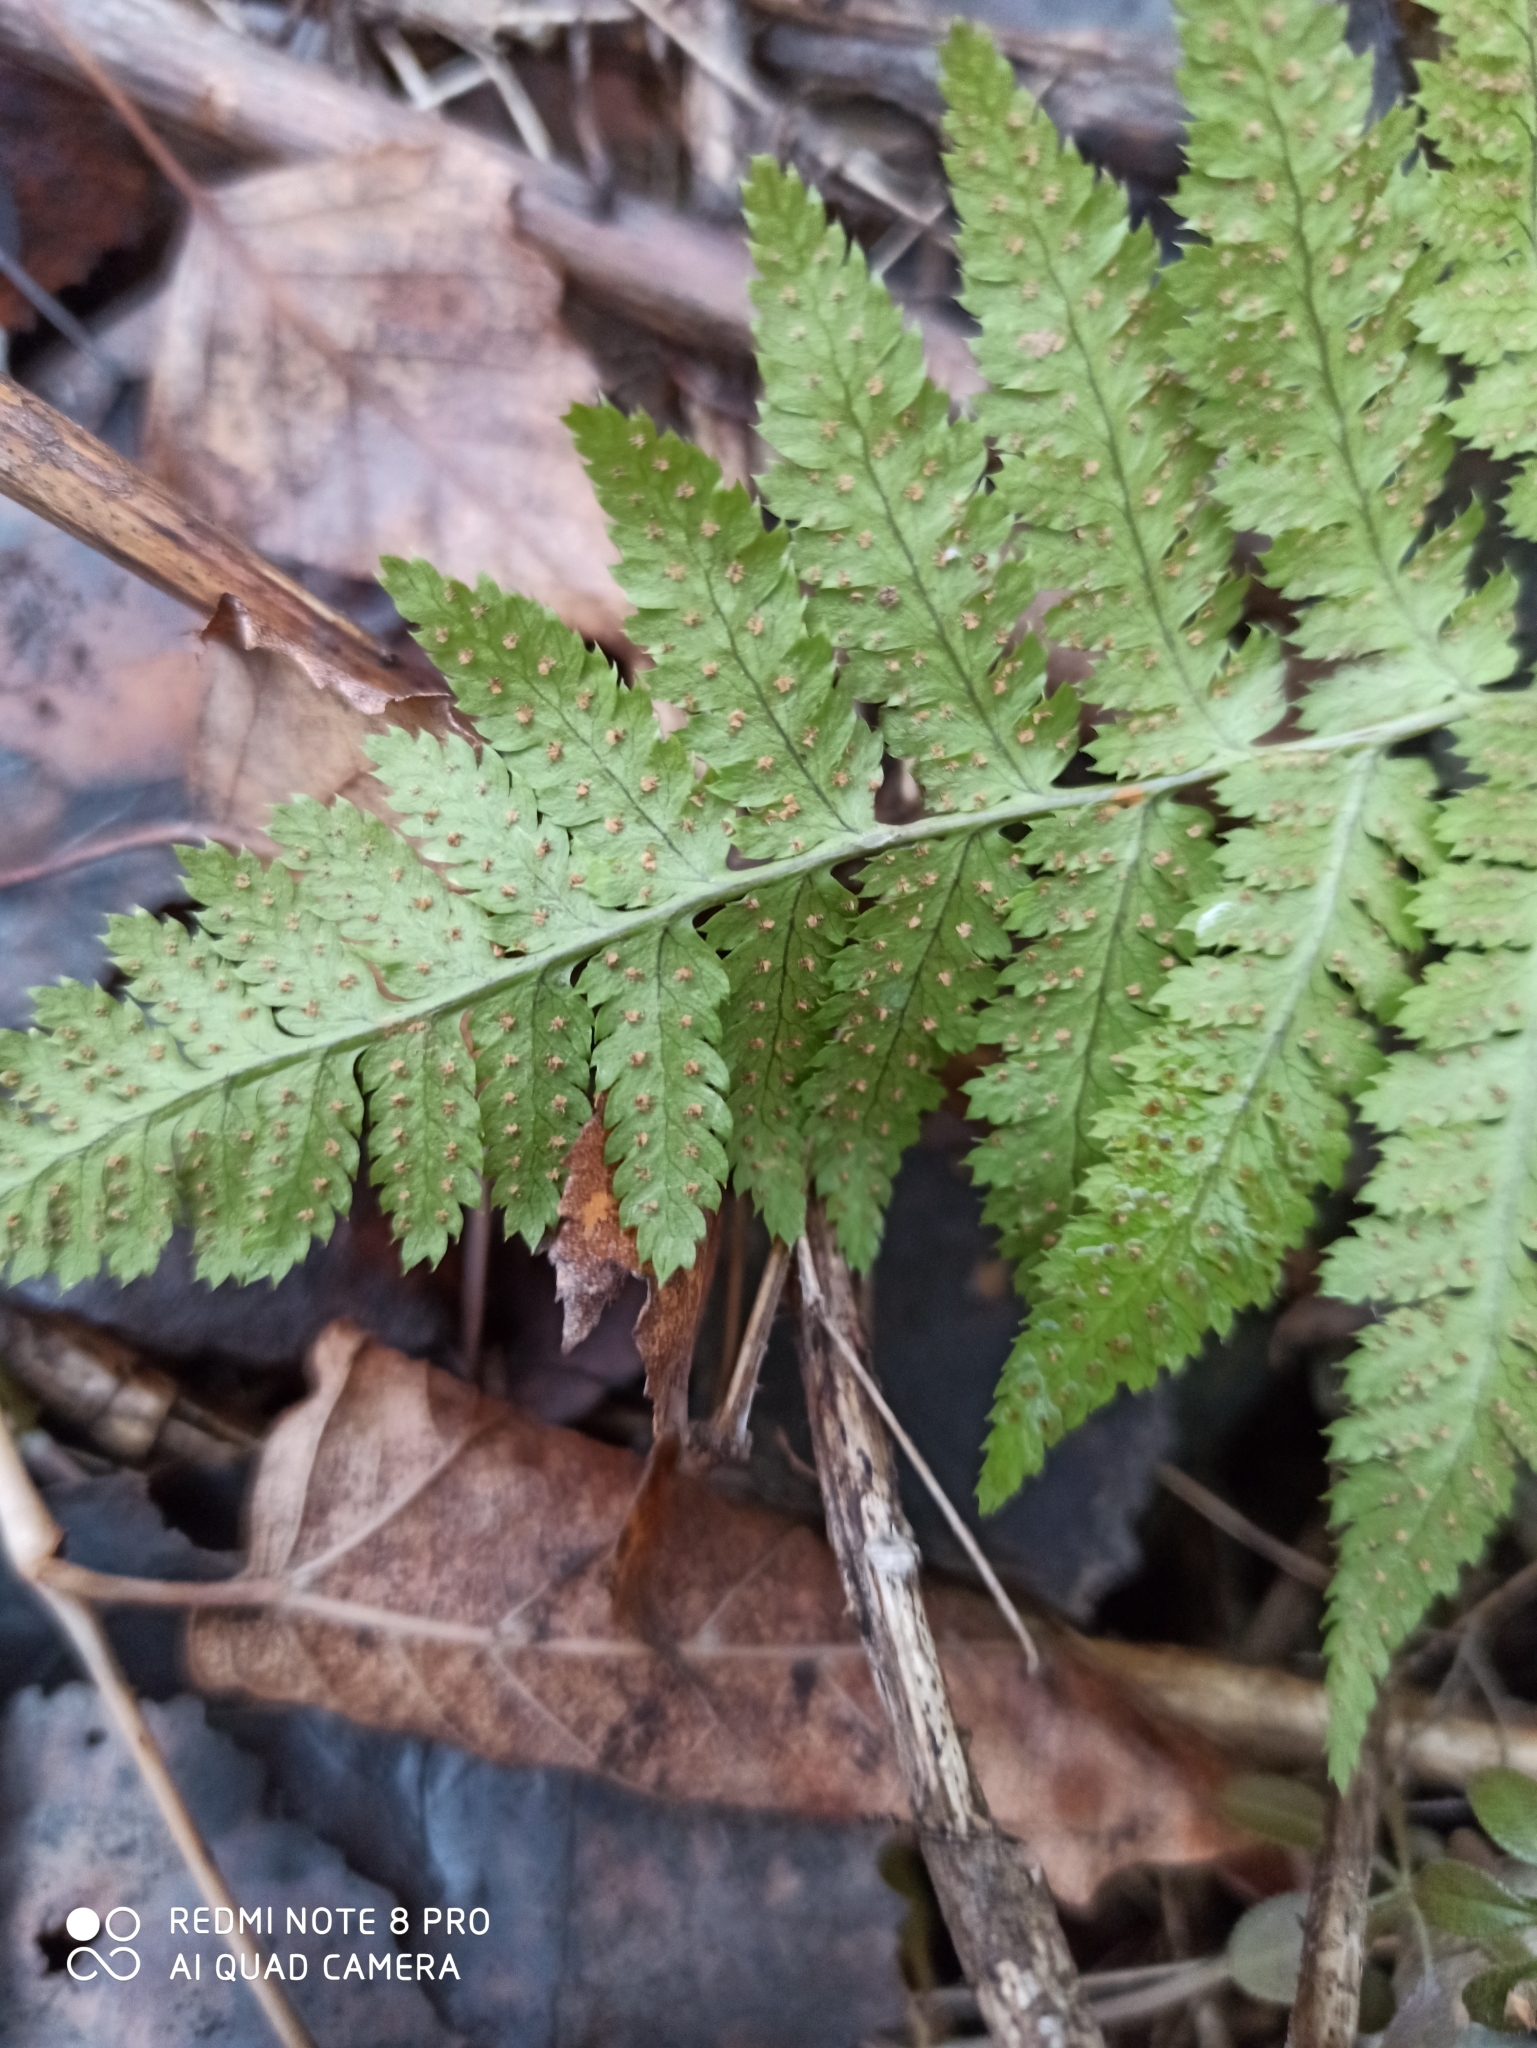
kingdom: Plantae
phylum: Tracheophyta
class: Polypodiopsida
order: Polypodiales
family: Dryopteridaceae
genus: Dryopteris
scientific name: Dryopteris carthusiana
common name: Narrow buckler-fern
